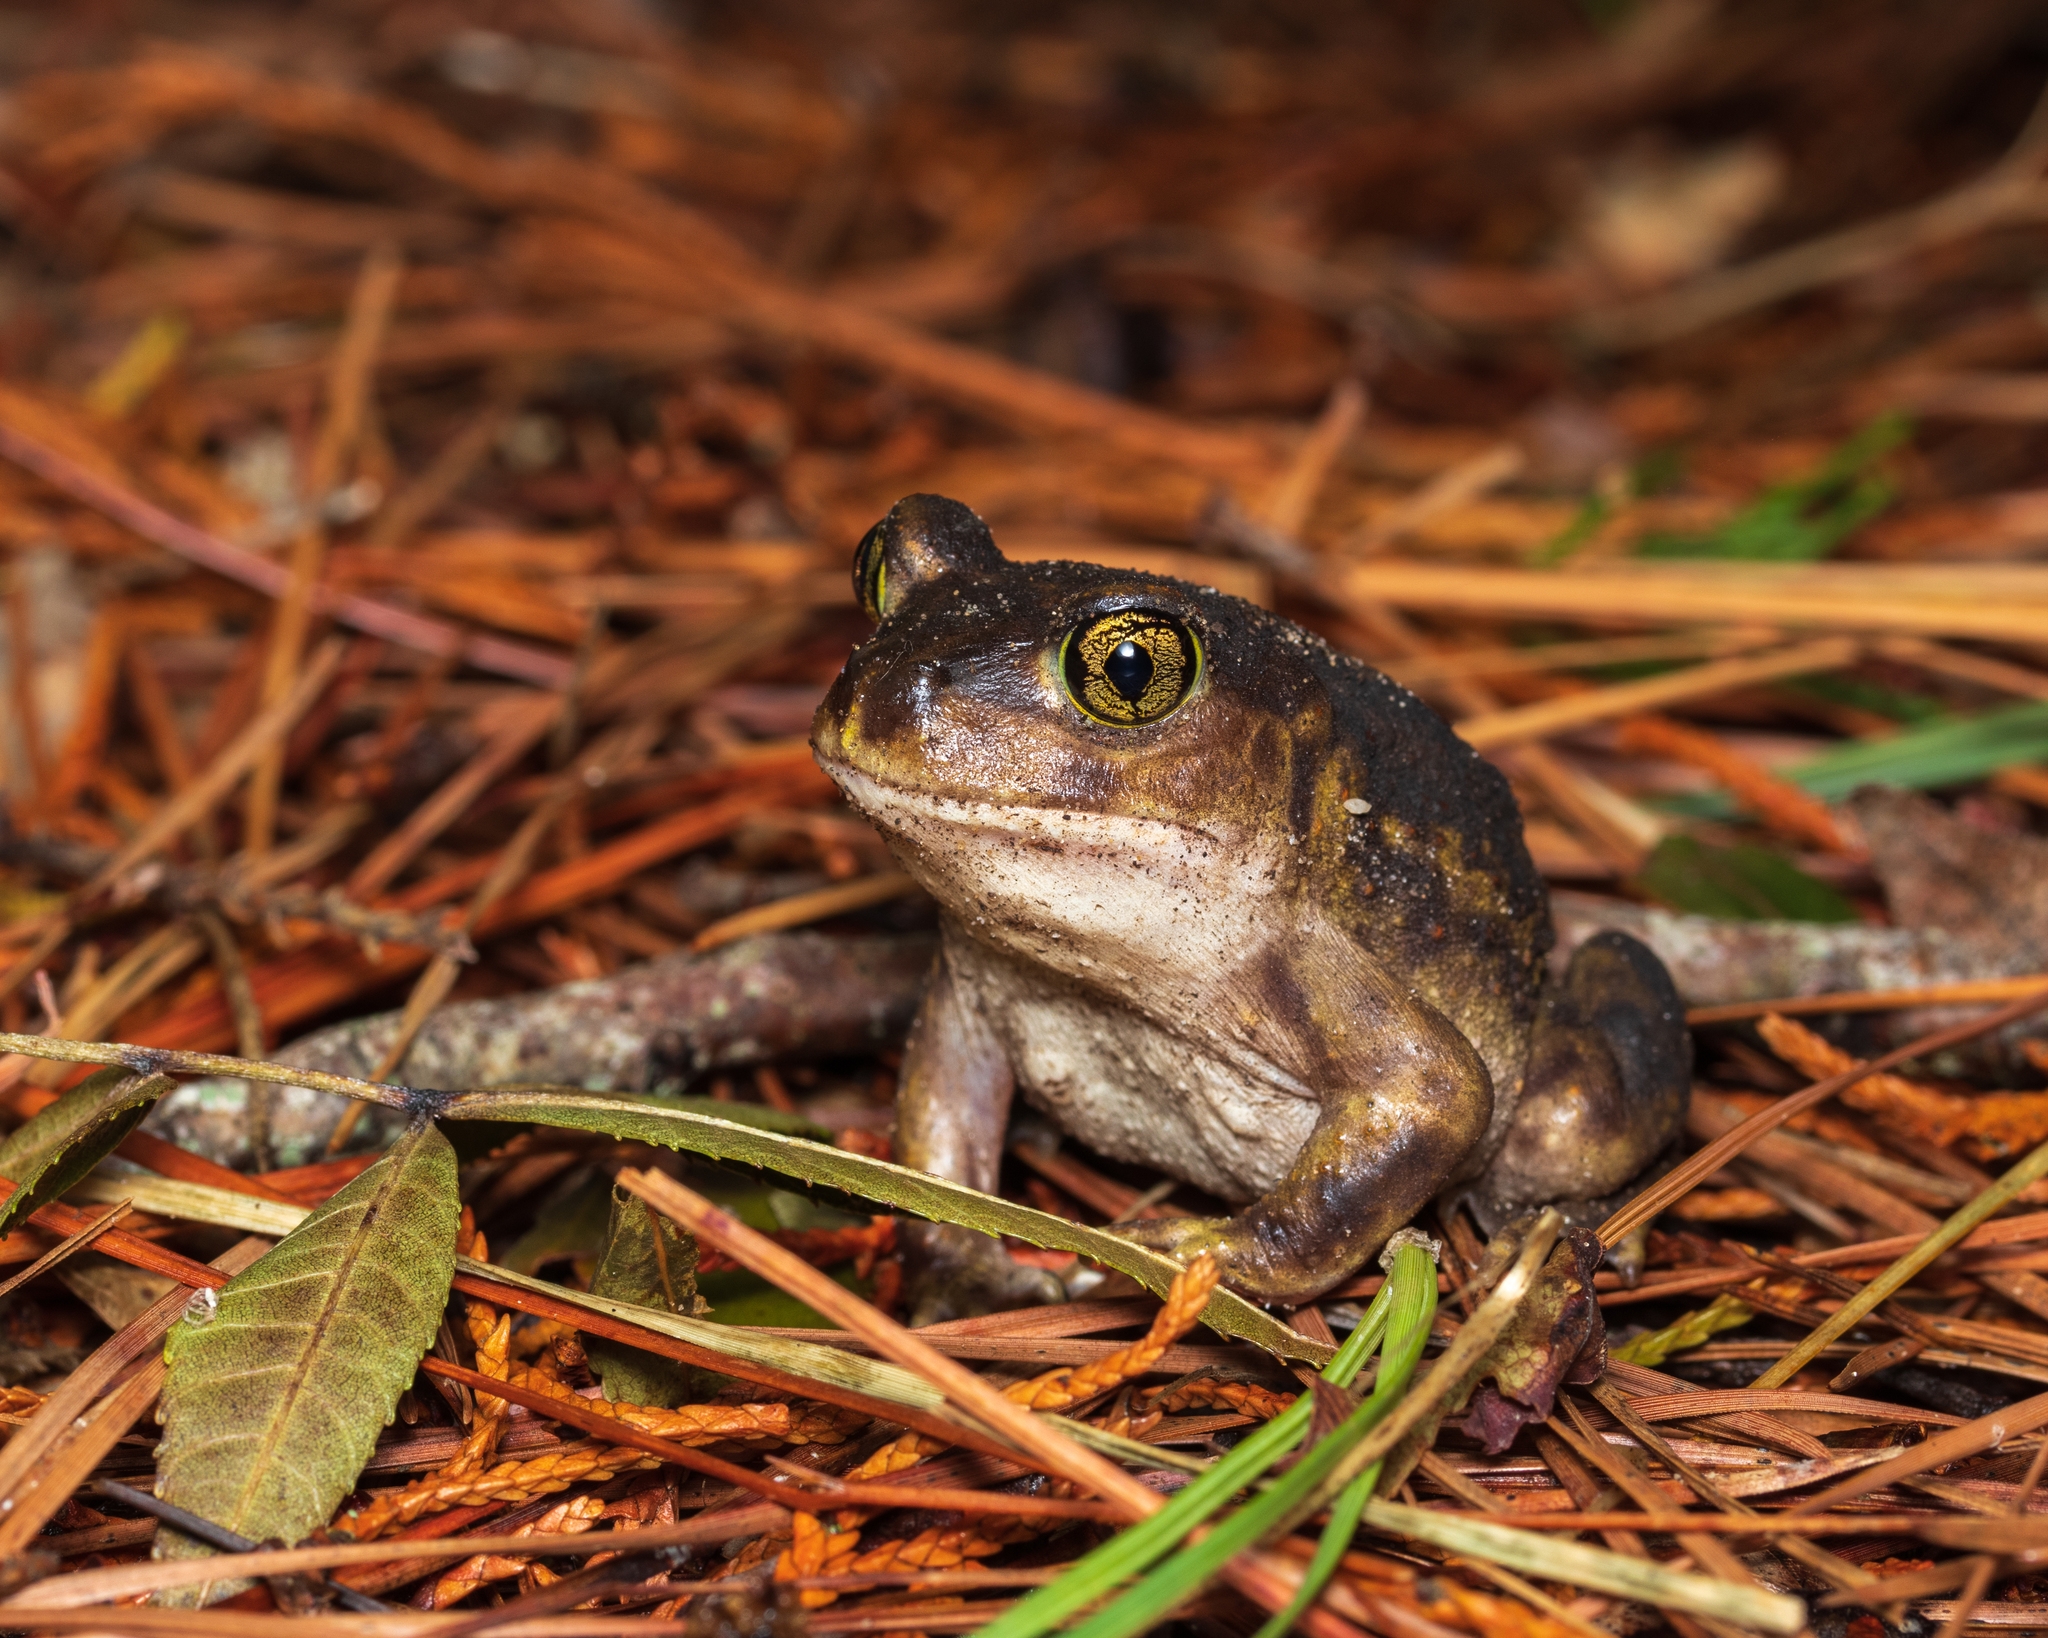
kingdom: Animalia
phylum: Chordata
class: Amphibia
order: Anura
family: Scaphiopodidae
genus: Scaphiopus
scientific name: Scaphiopus holbrookii
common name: Eastern spadefoot toad
